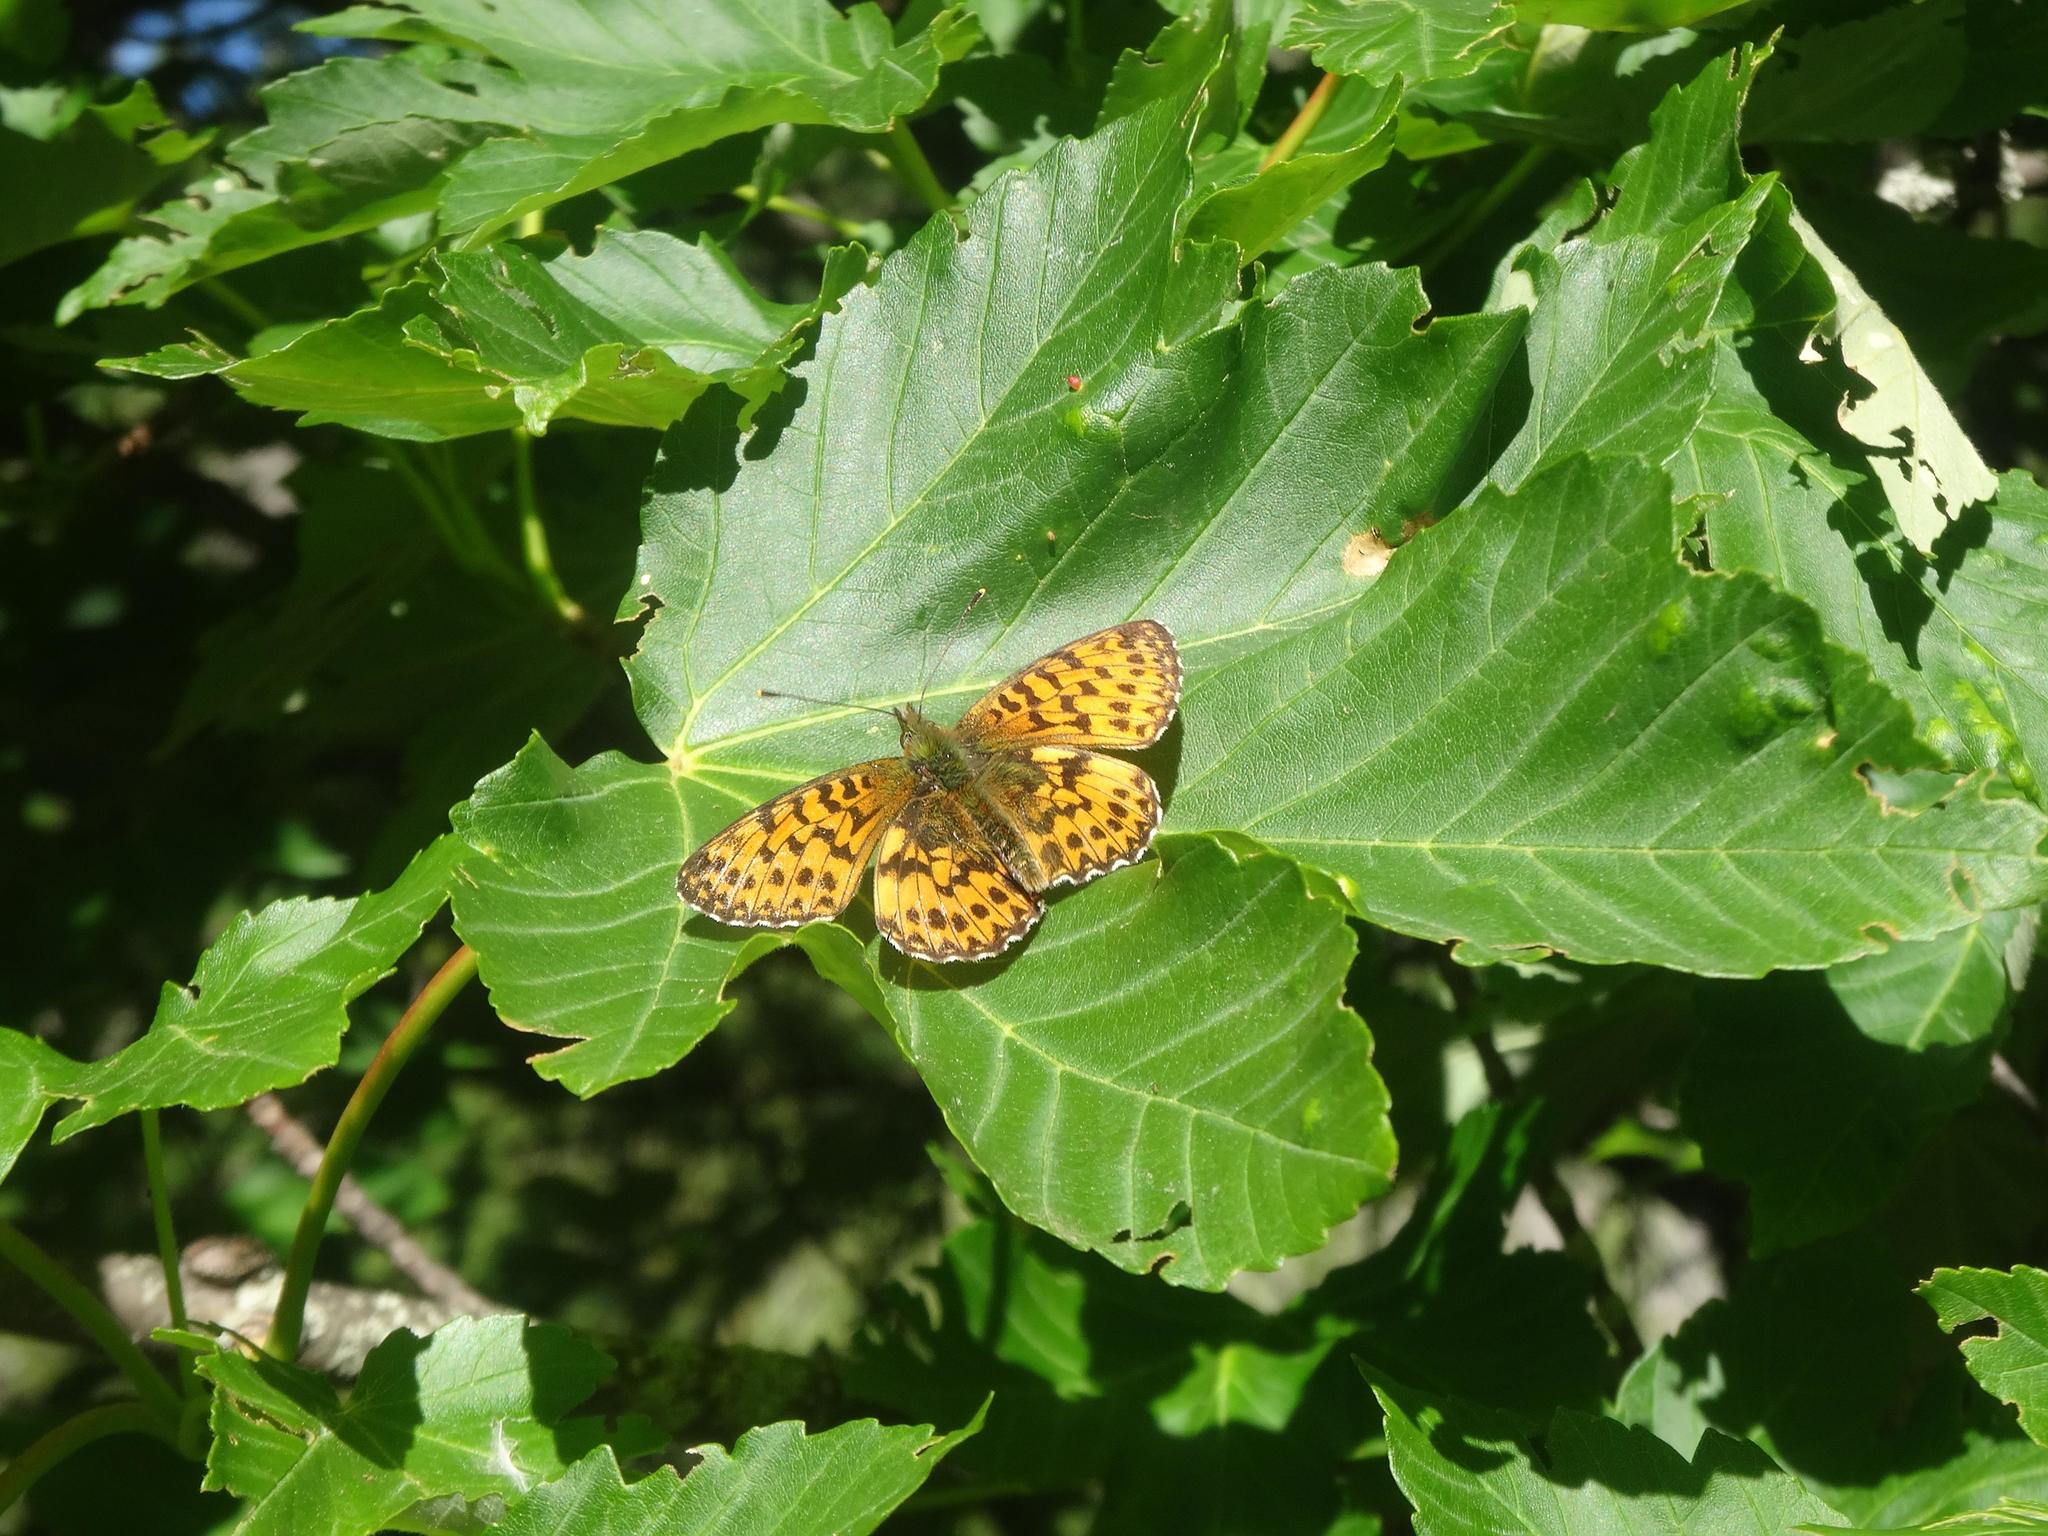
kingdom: Animalia
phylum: Arthropoda
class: Insecta
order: Lepidoptera
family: Nymphalidae
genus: Boloria
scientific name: Boloria titania
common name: Titania's fritillary
